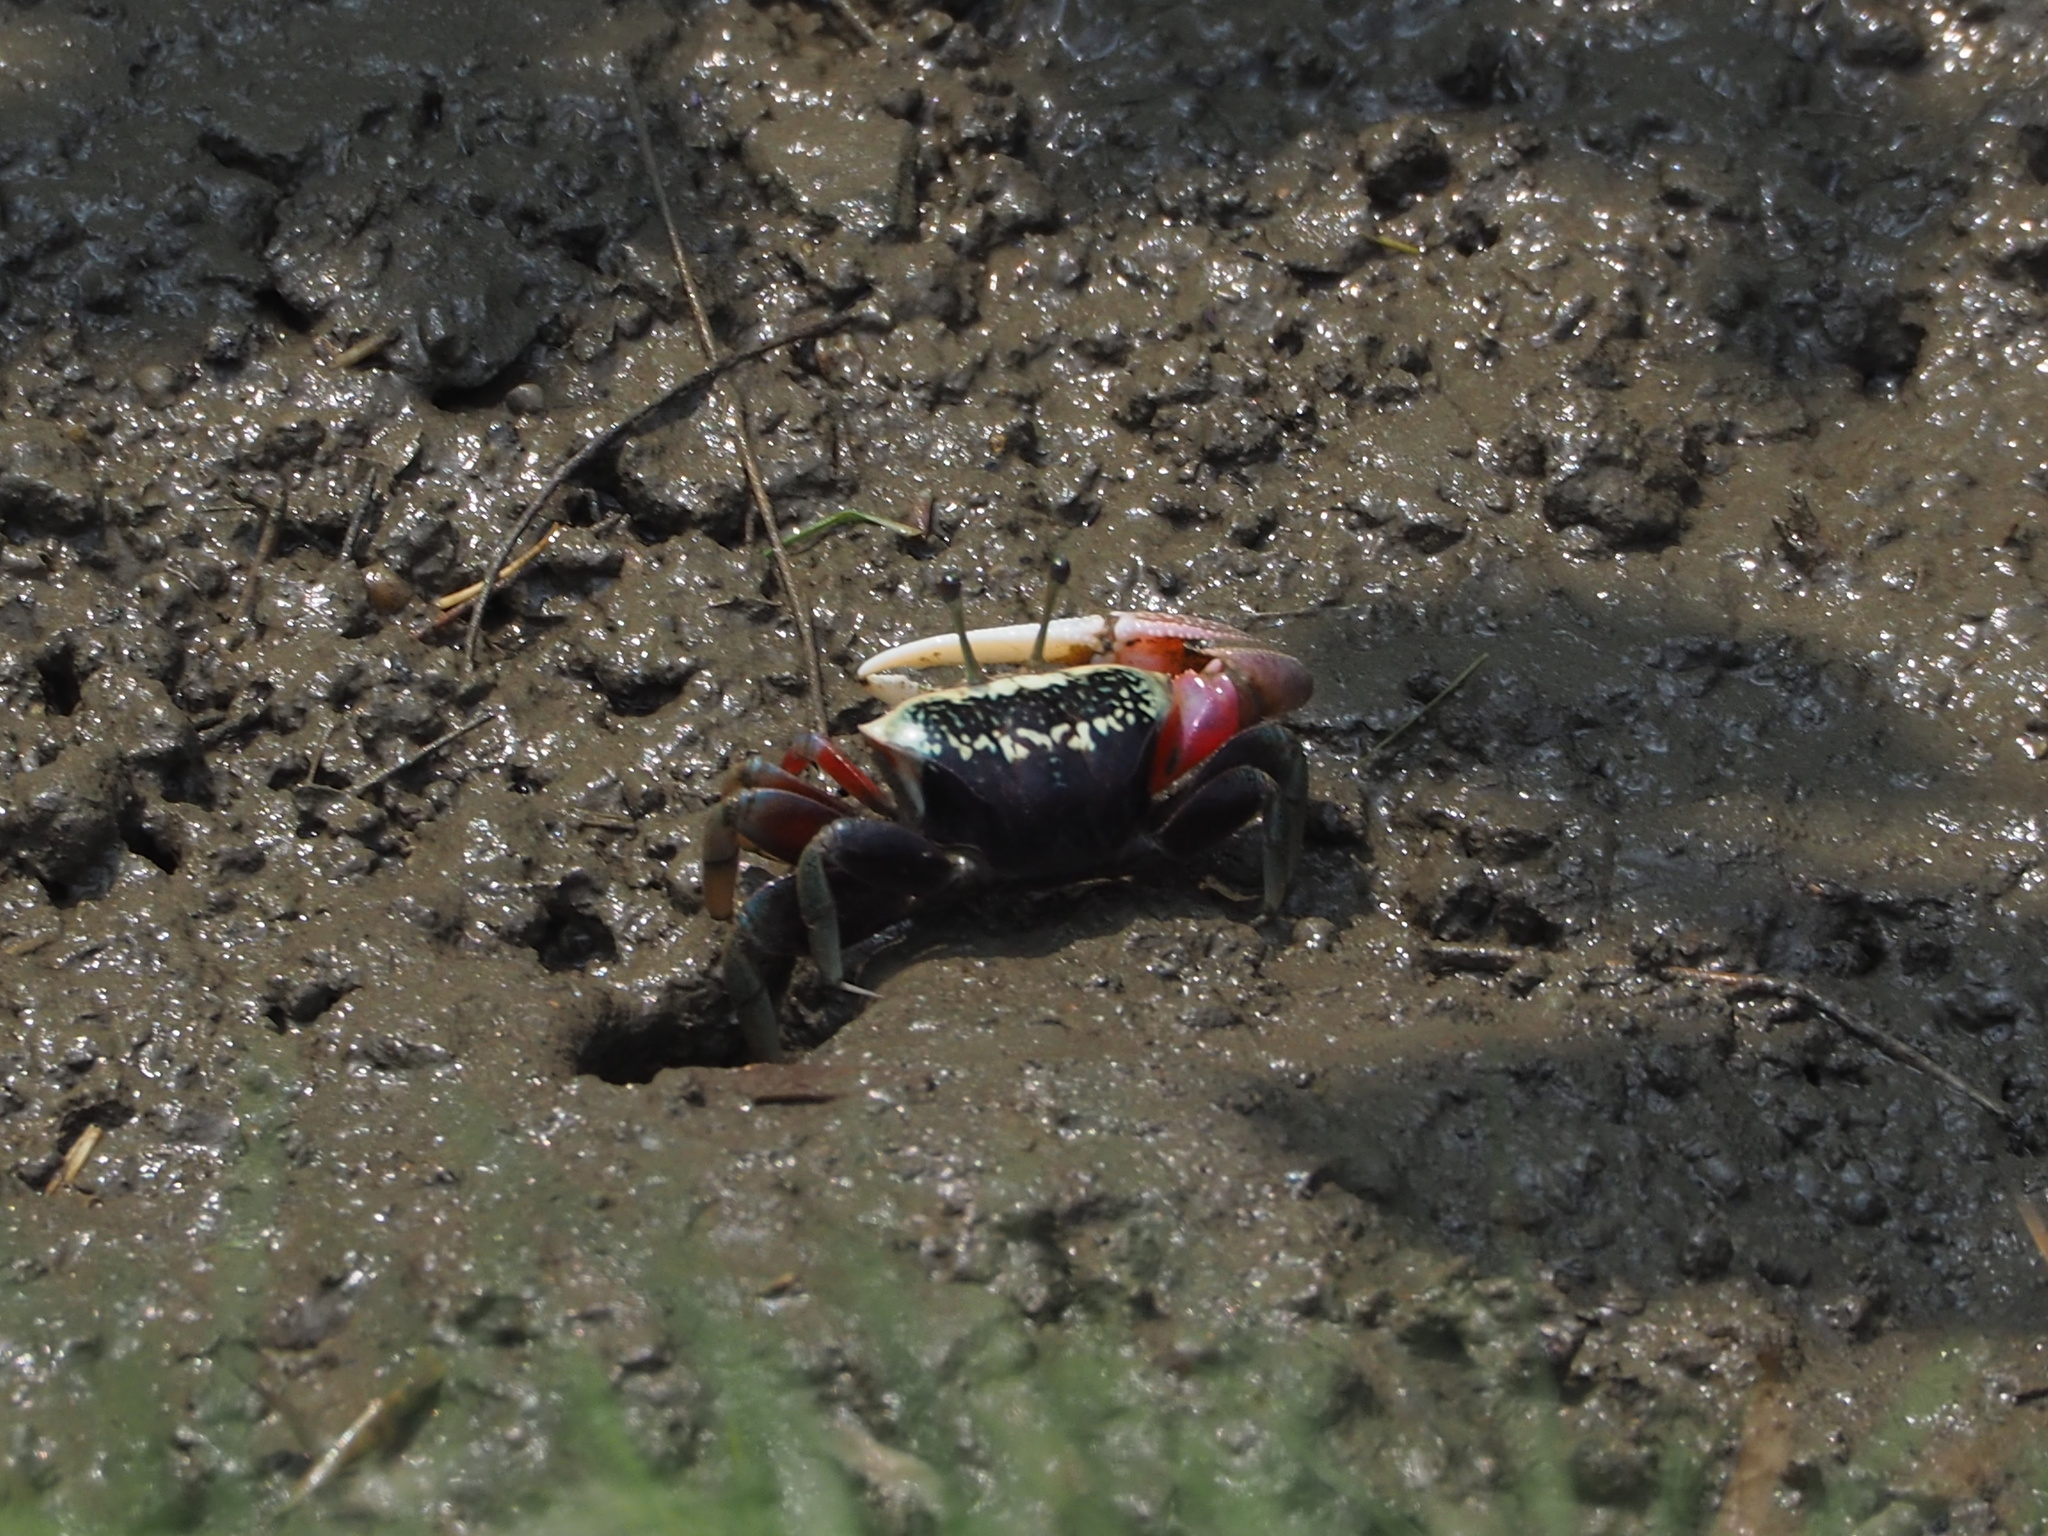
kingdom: Animalia
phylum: Arthropoda
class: Malacostraca
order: Decapoda
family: Ocypodidae
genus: Tubuca
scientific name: Tubuca arcuata
